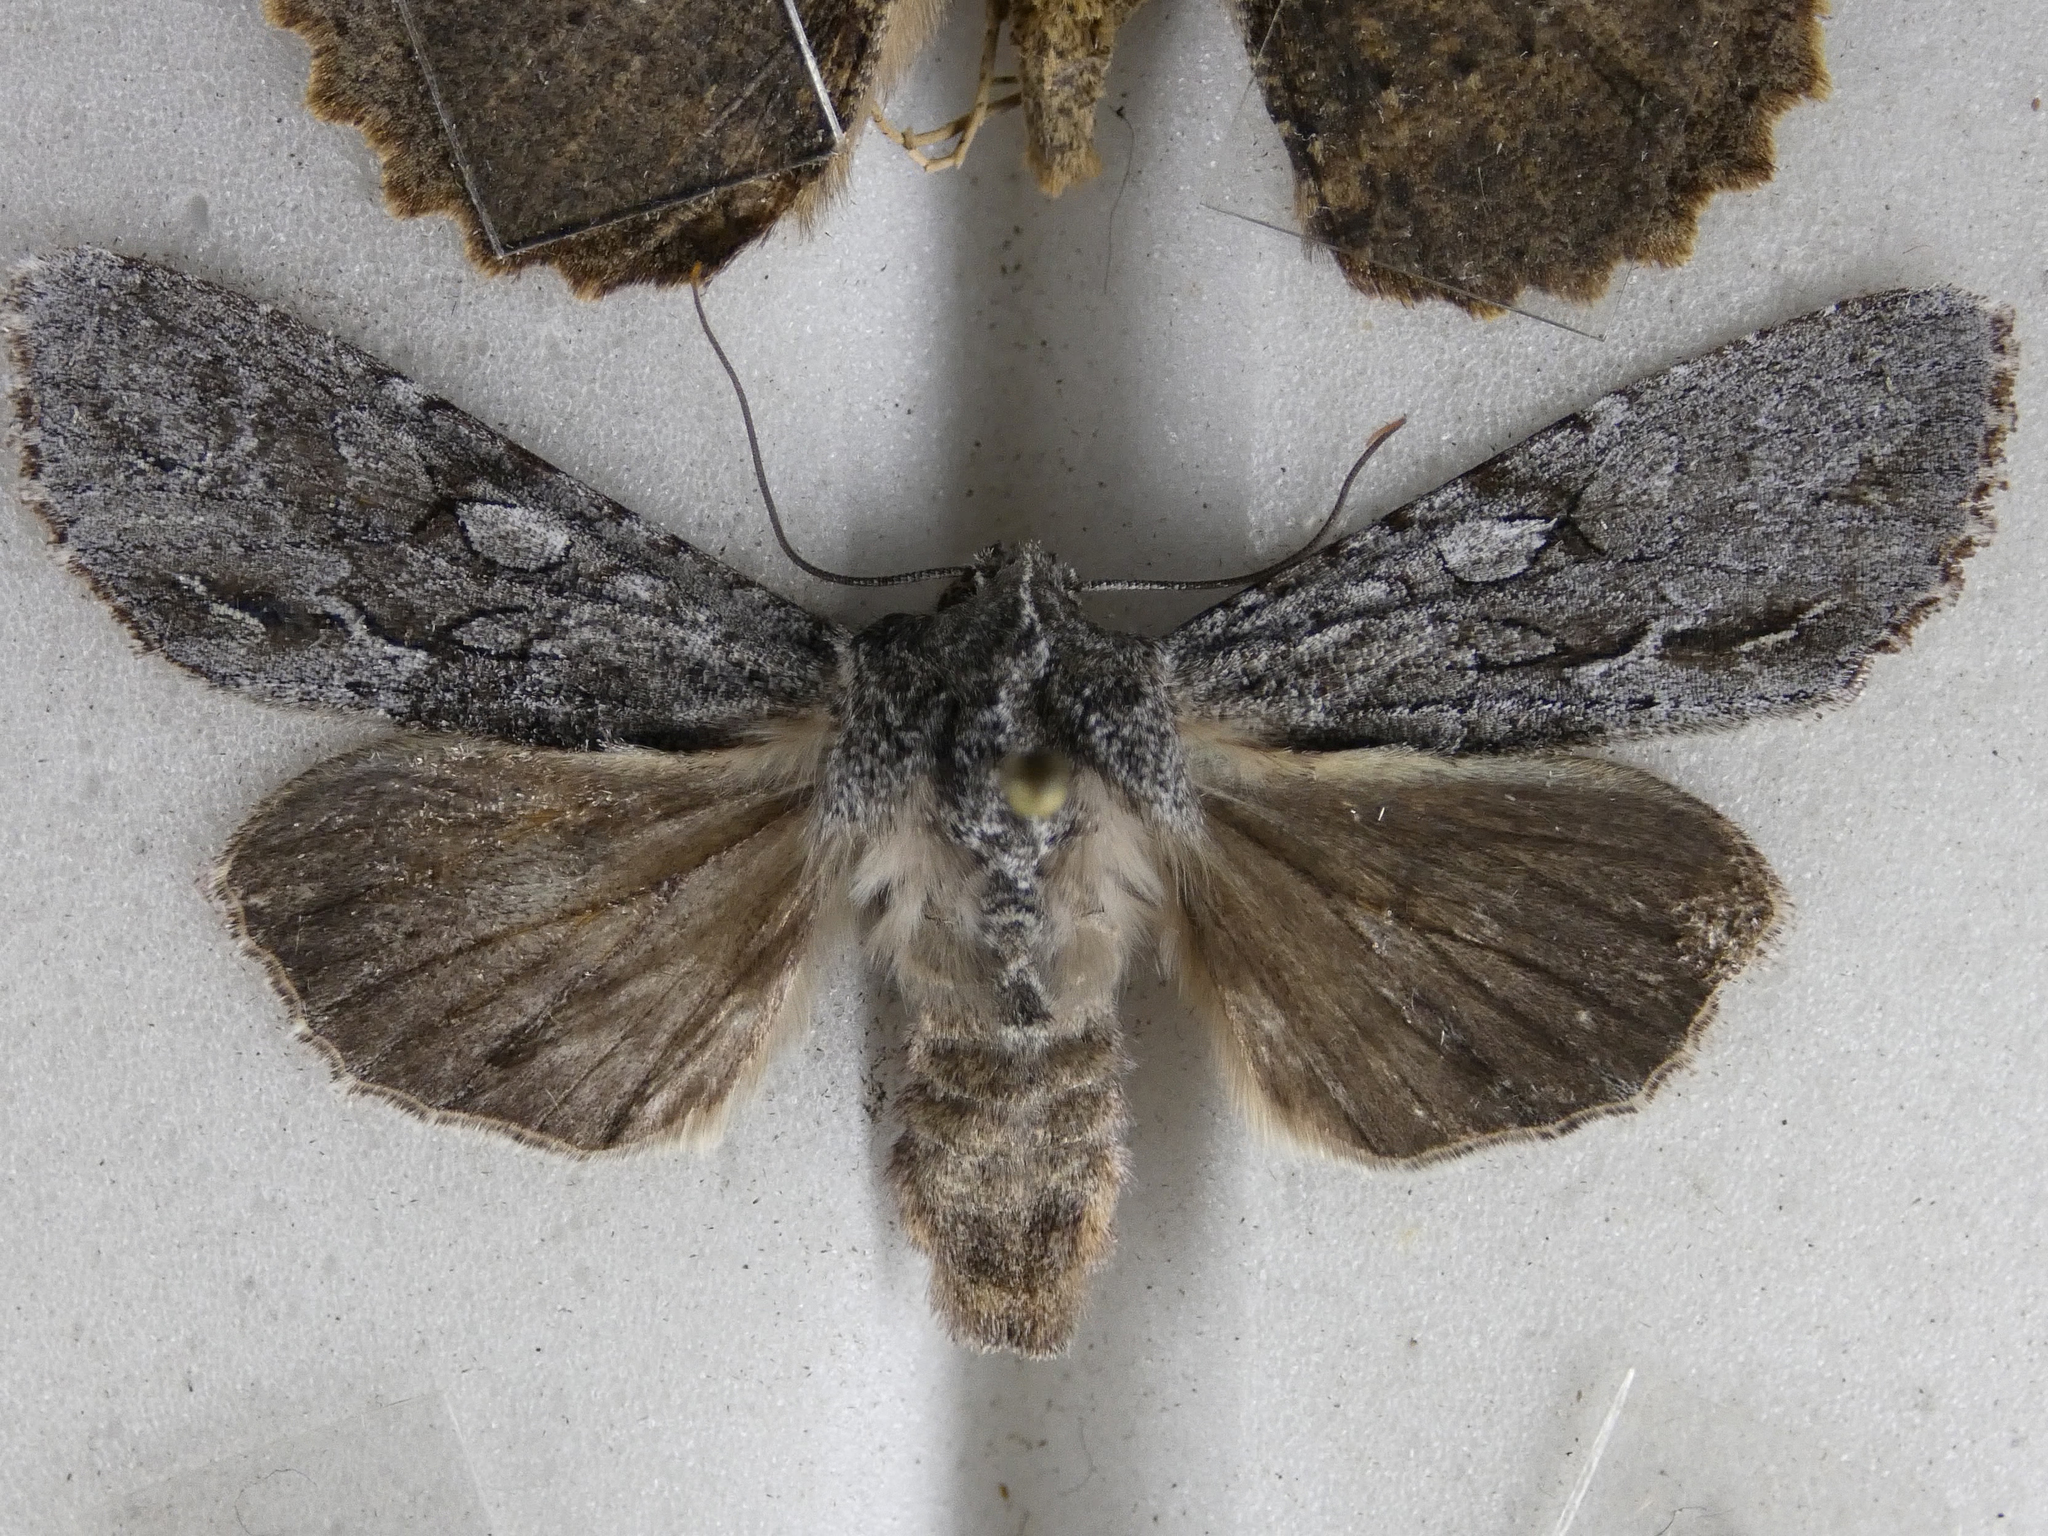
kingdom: Animalia
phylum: Arthropoda
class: Insecta
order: Lepidoptera
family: Noctuidae
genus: Ichneutica
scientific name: Ichneutica
